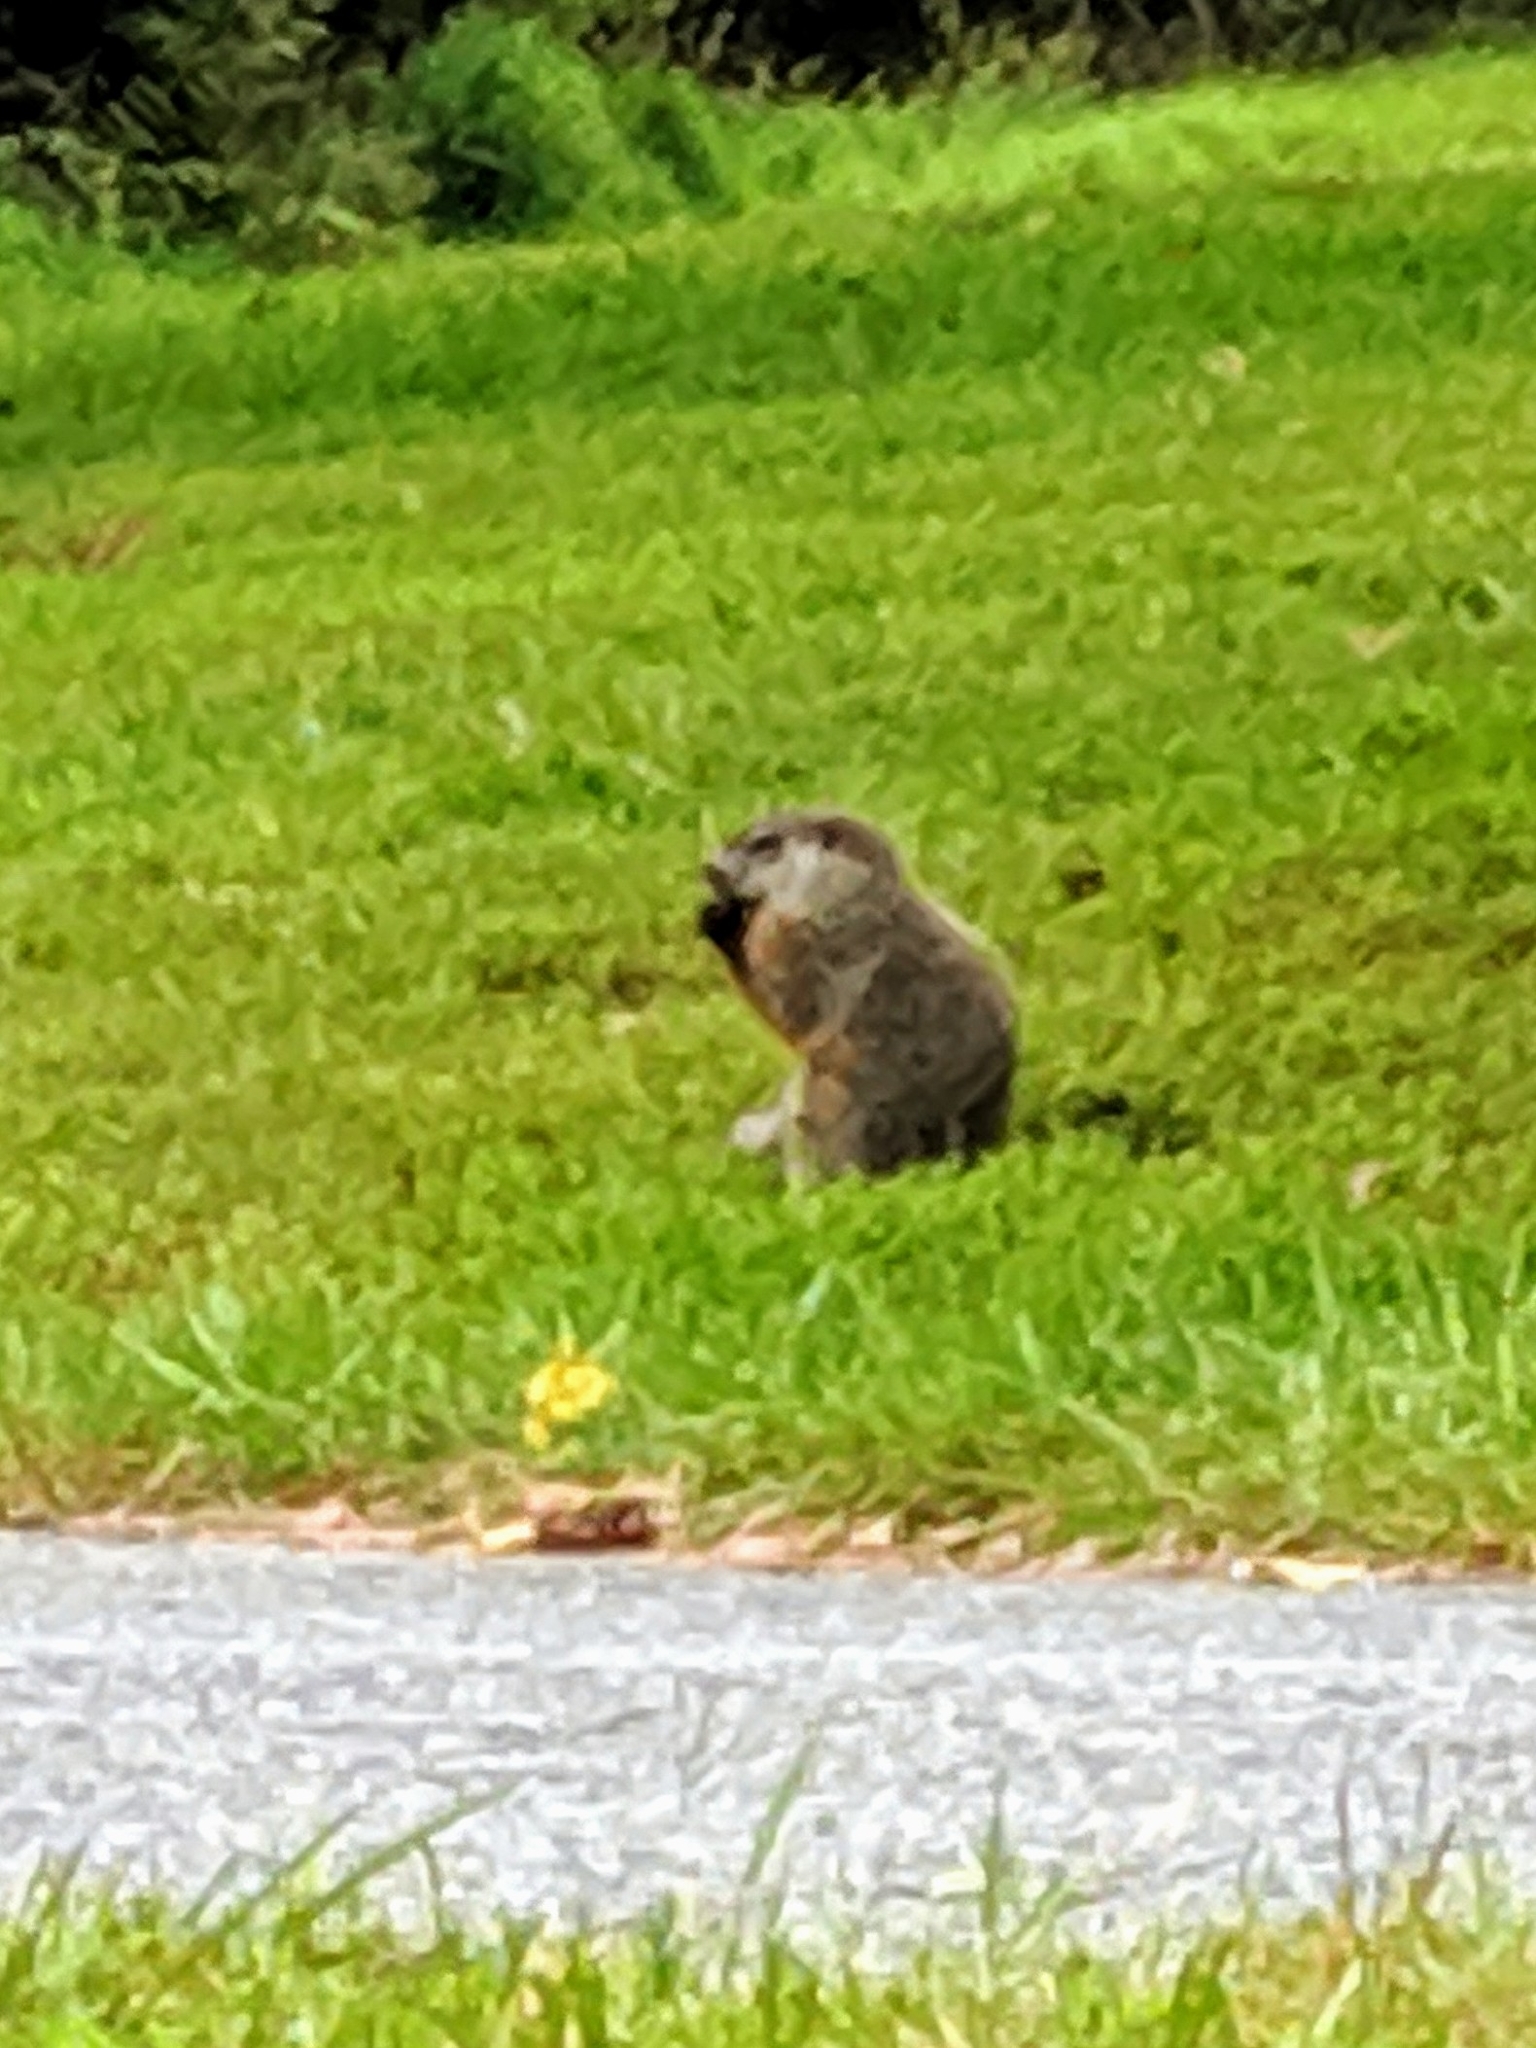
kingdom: Animalia
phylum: Chordata
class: Mammalia
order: Rodentia
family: Sciuridae
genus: Marmota
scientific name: Marmota monax
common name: Groundhog
